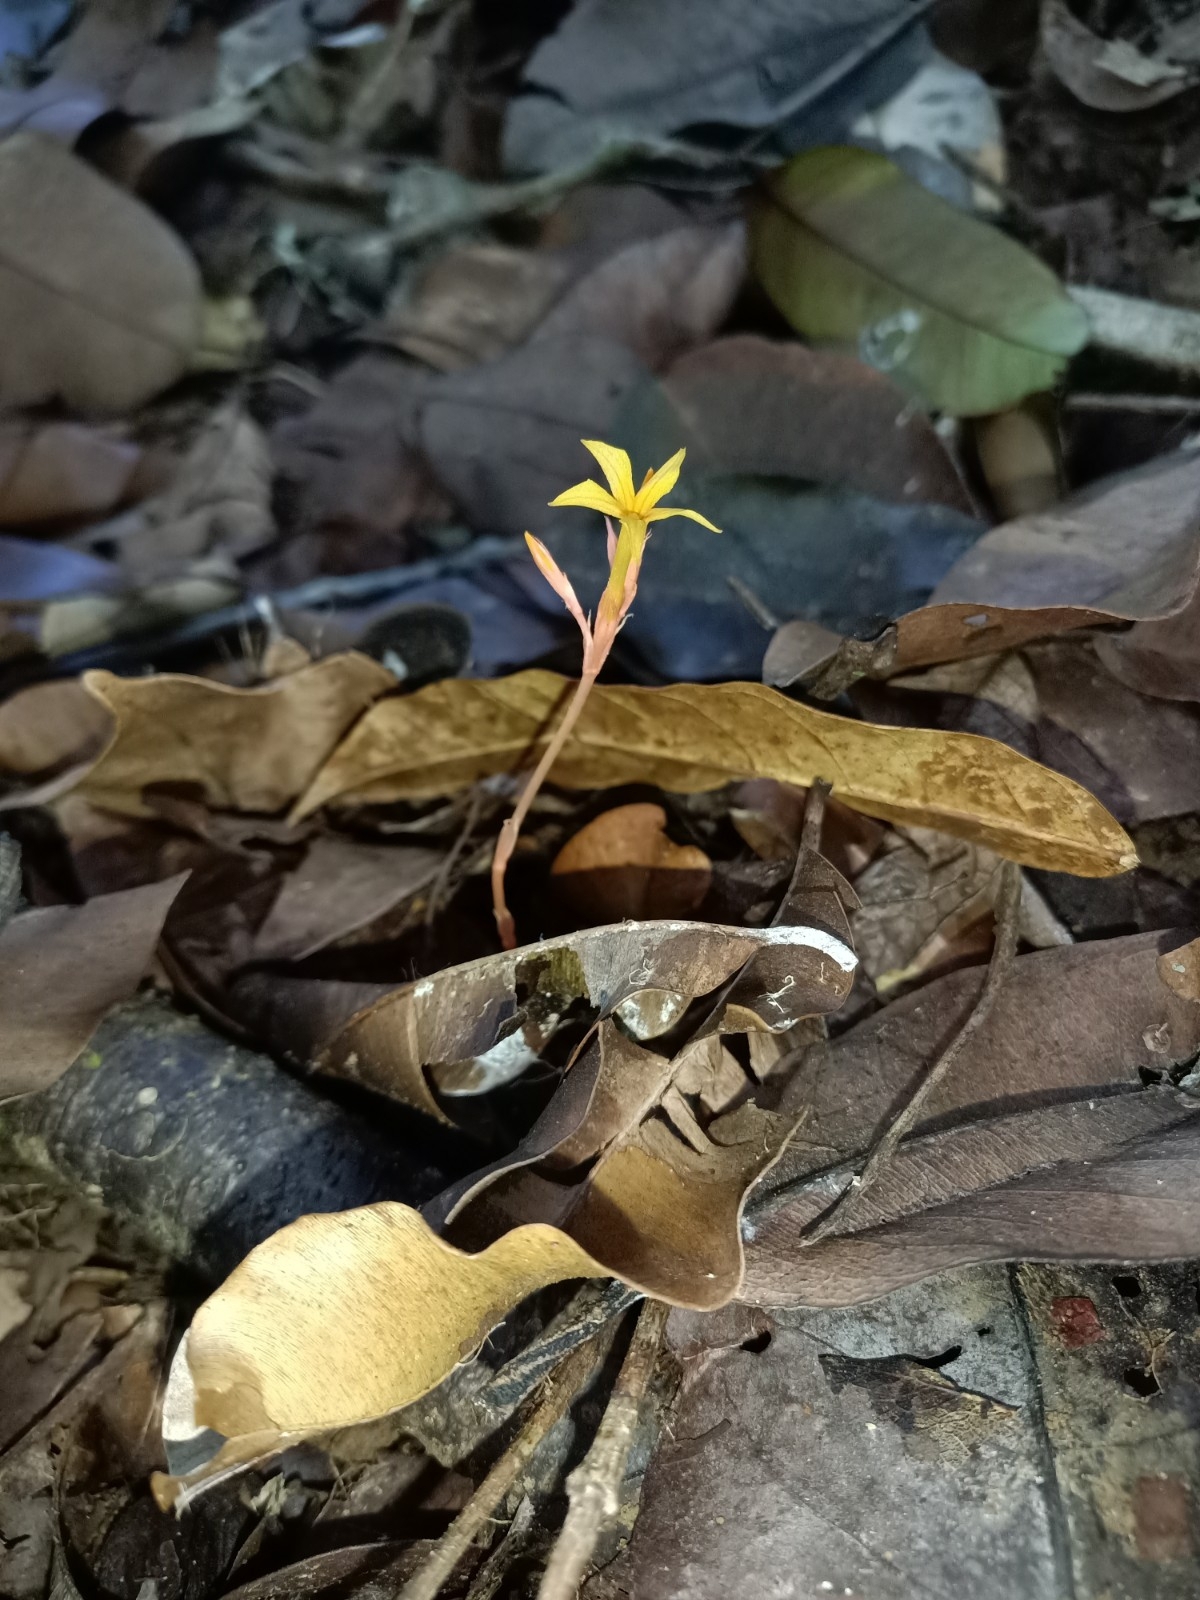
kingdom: Plantae
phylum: Tracheophyta
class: Magnoliopsida
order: Gentianales
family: Gentianaceae
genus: Voyria
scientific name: Voyria aurantiaca
